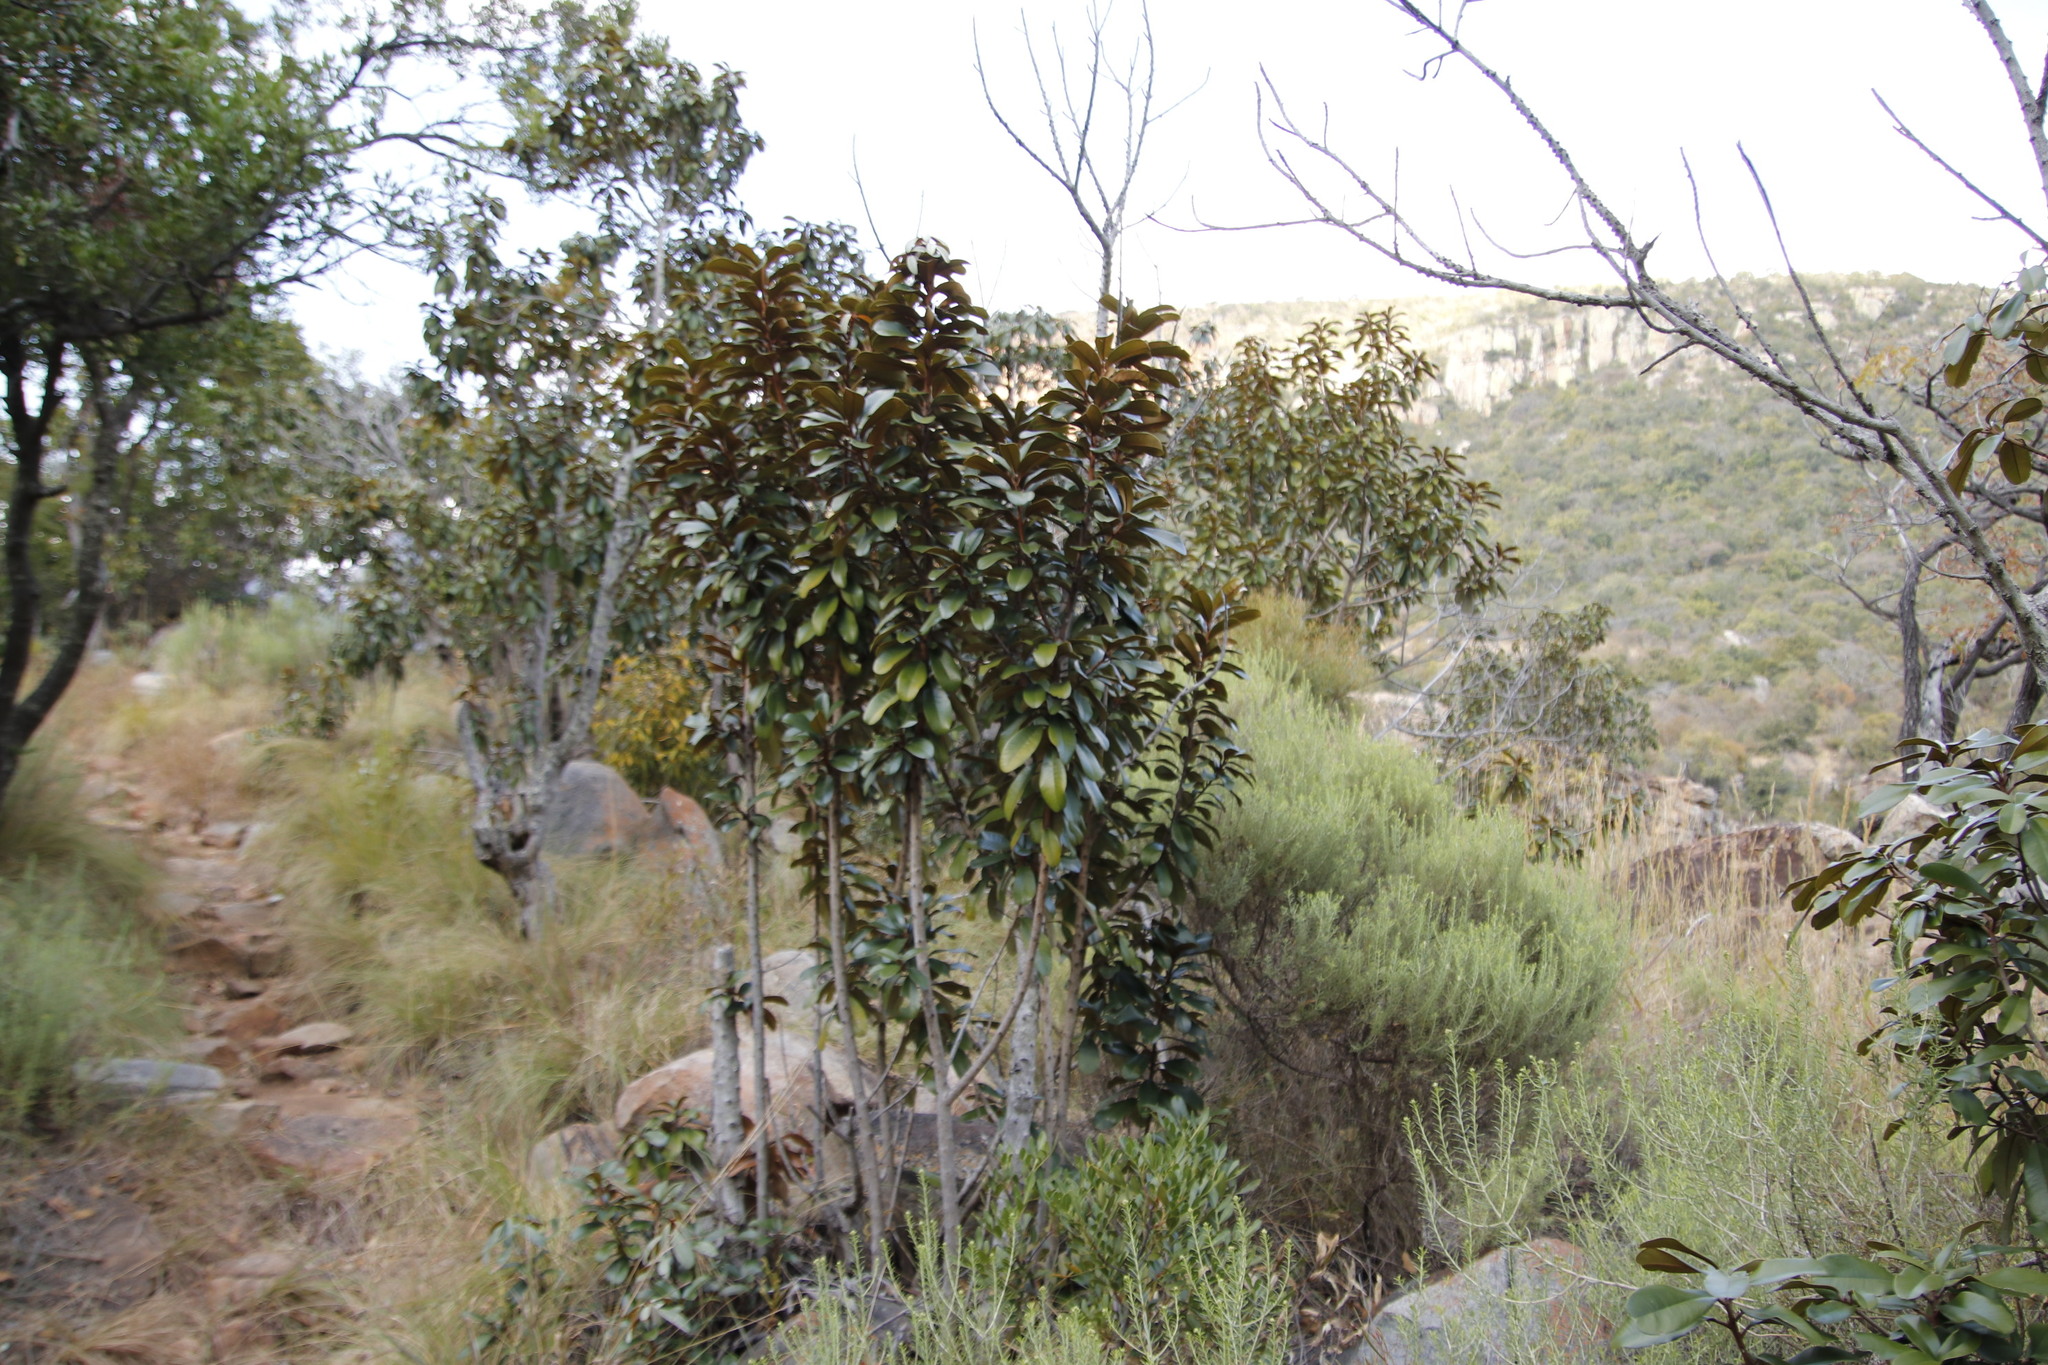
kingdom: Plantae
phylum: Tracheophyta
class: Magnoliopsida
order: Ericales
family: Sapotaceae
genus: Englerophytum
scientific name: Englerophytum magalismontanum
